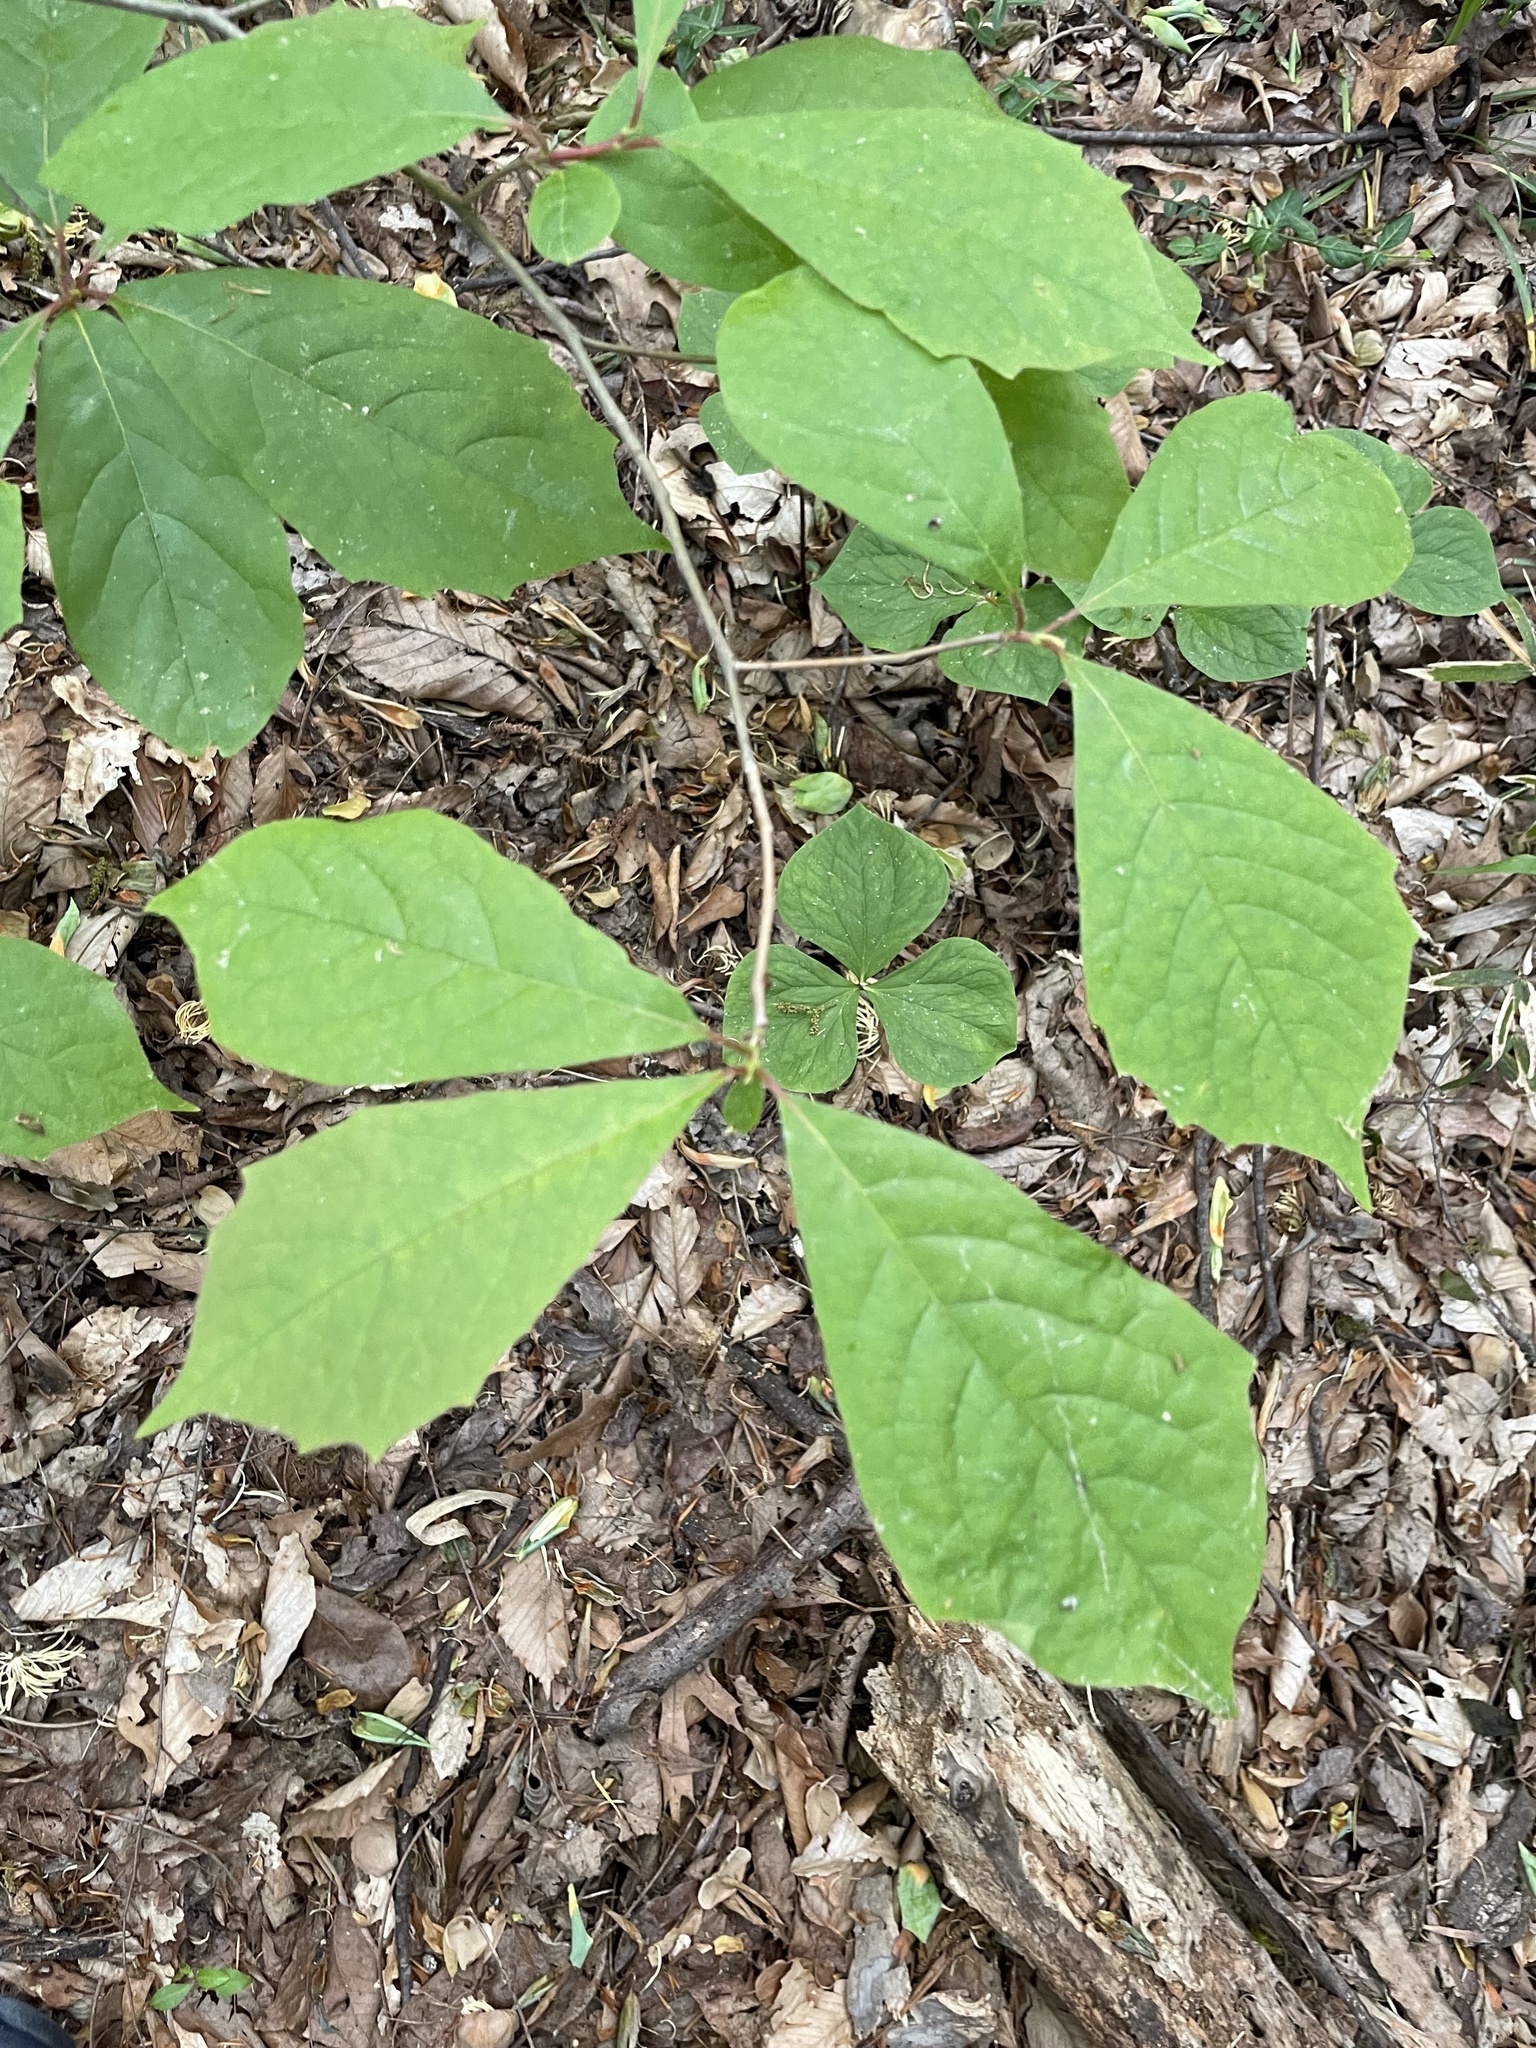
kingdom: Plantae
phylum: Tracheophyta
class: Magnoliopsida
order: Cornales
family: Nyssaceae
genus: Nyssa
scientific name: Nyssa sylvatica
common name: Black tupelo
